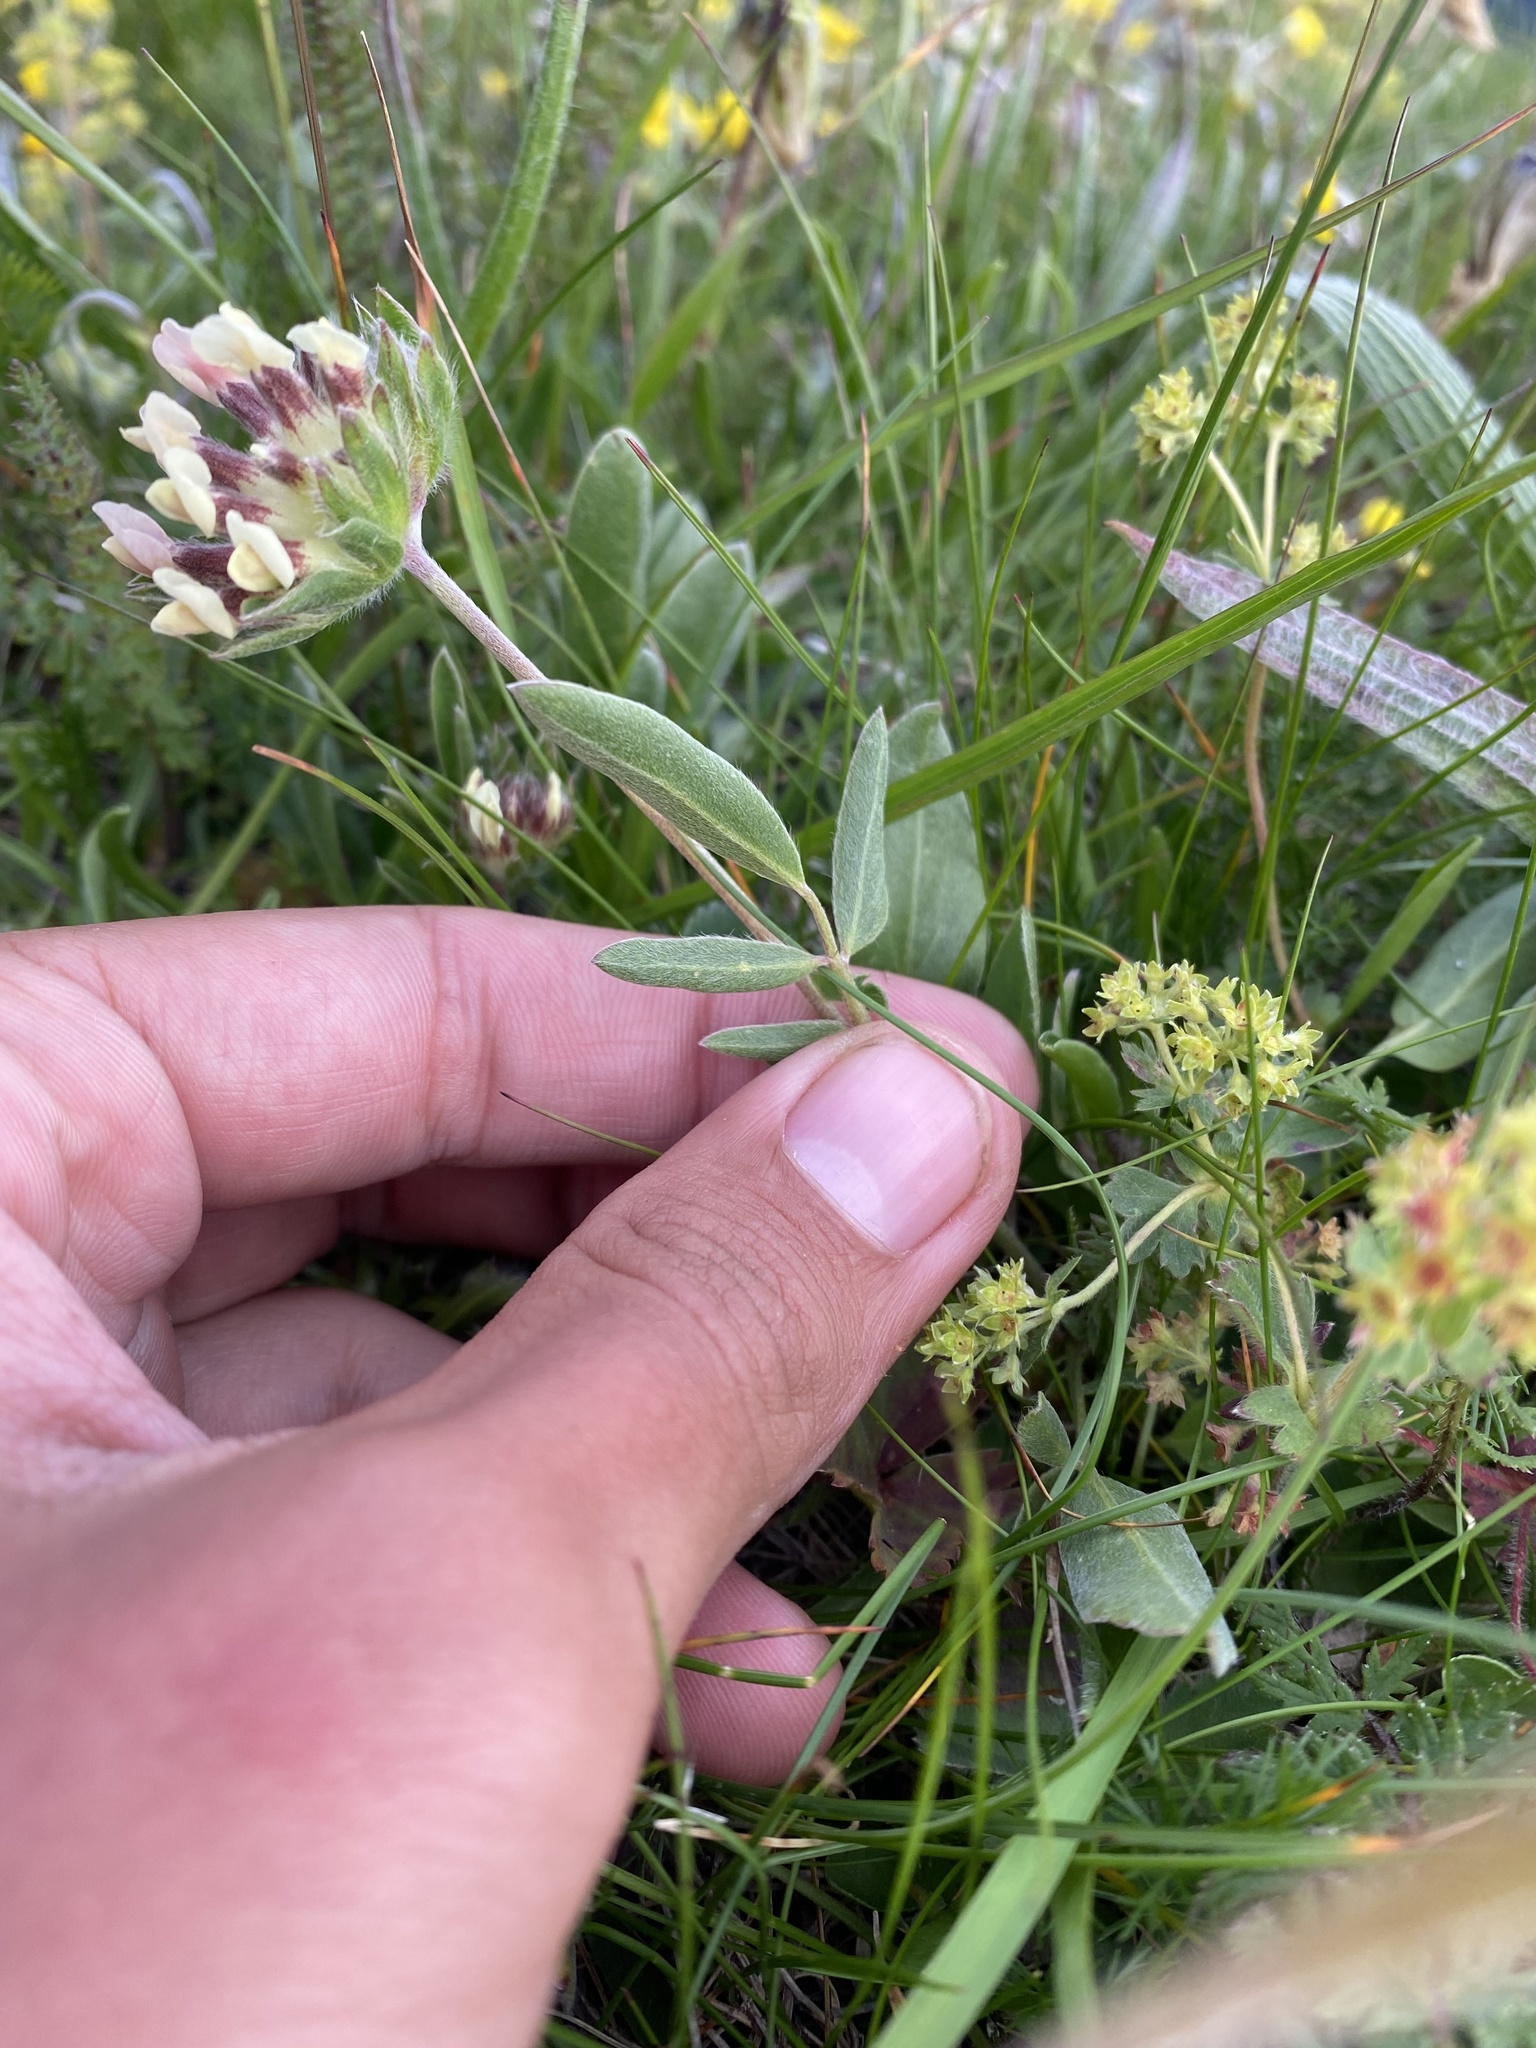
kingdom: Plantae
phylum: Tracheophyta
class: Magnoliopsida
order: Fabales
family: Fabaceae
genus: Anthyllis
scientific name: Anthyllis vulneraria
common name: Kidney vetch
